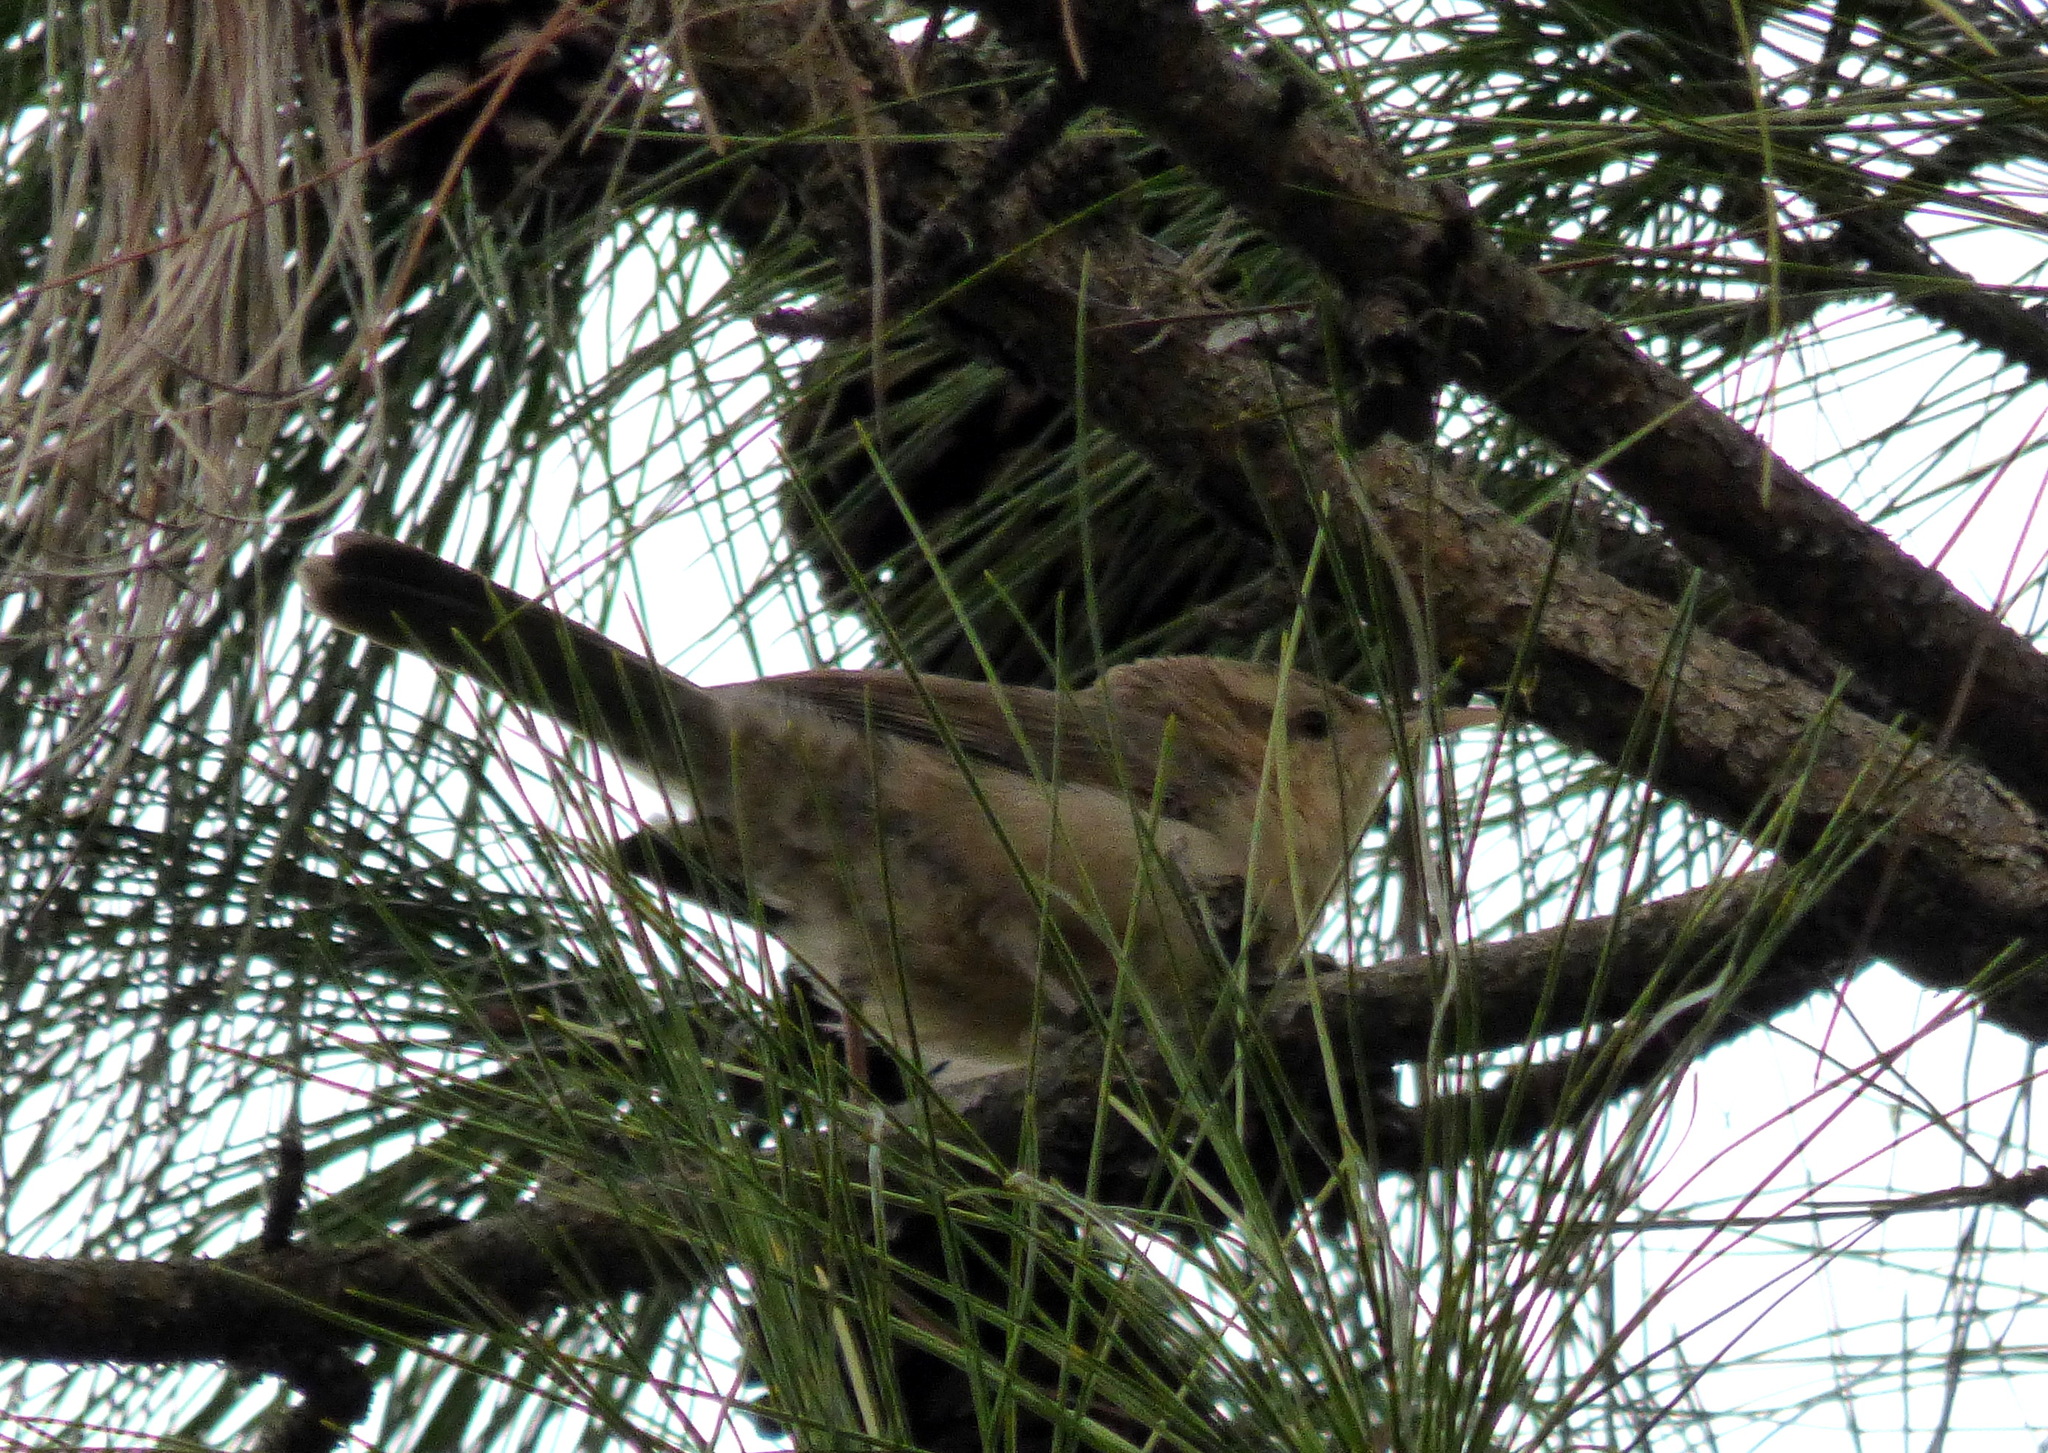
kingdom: Animalia
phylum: Chordata
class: Aves
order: Passeriformes
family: Troglodytidae
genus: Campylorhynchus
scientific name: Campylorhynchus turdinus
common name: Thrush-like wren
